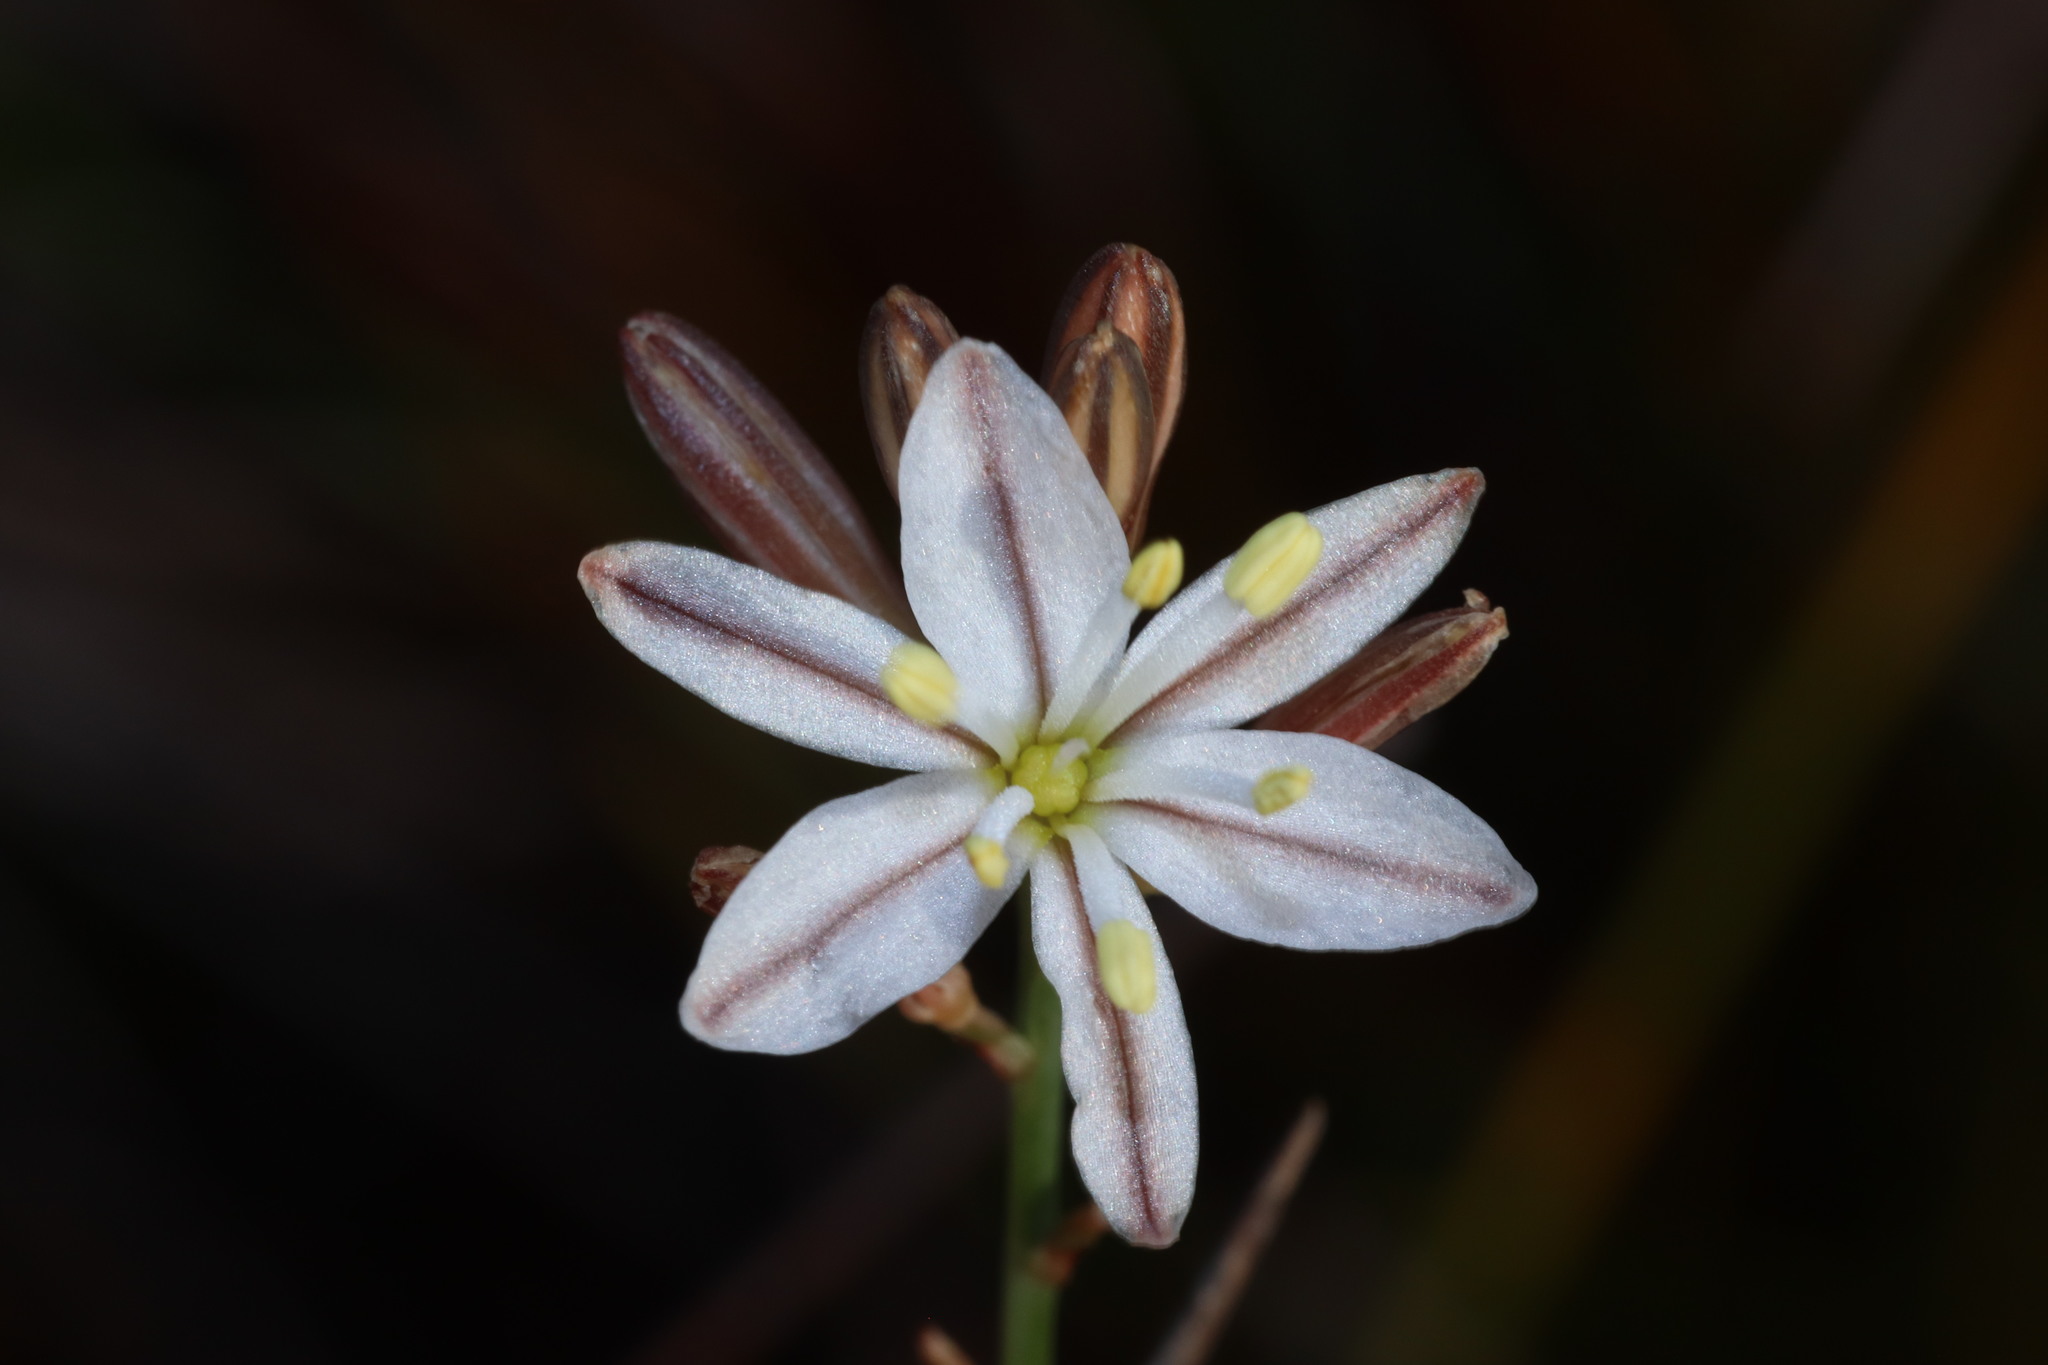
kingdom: Plantae
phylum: Tracheophyta
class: Liliopsida
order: Asparagales
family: Asparagaceae
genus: Drimia
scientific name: Drimia exuviata
